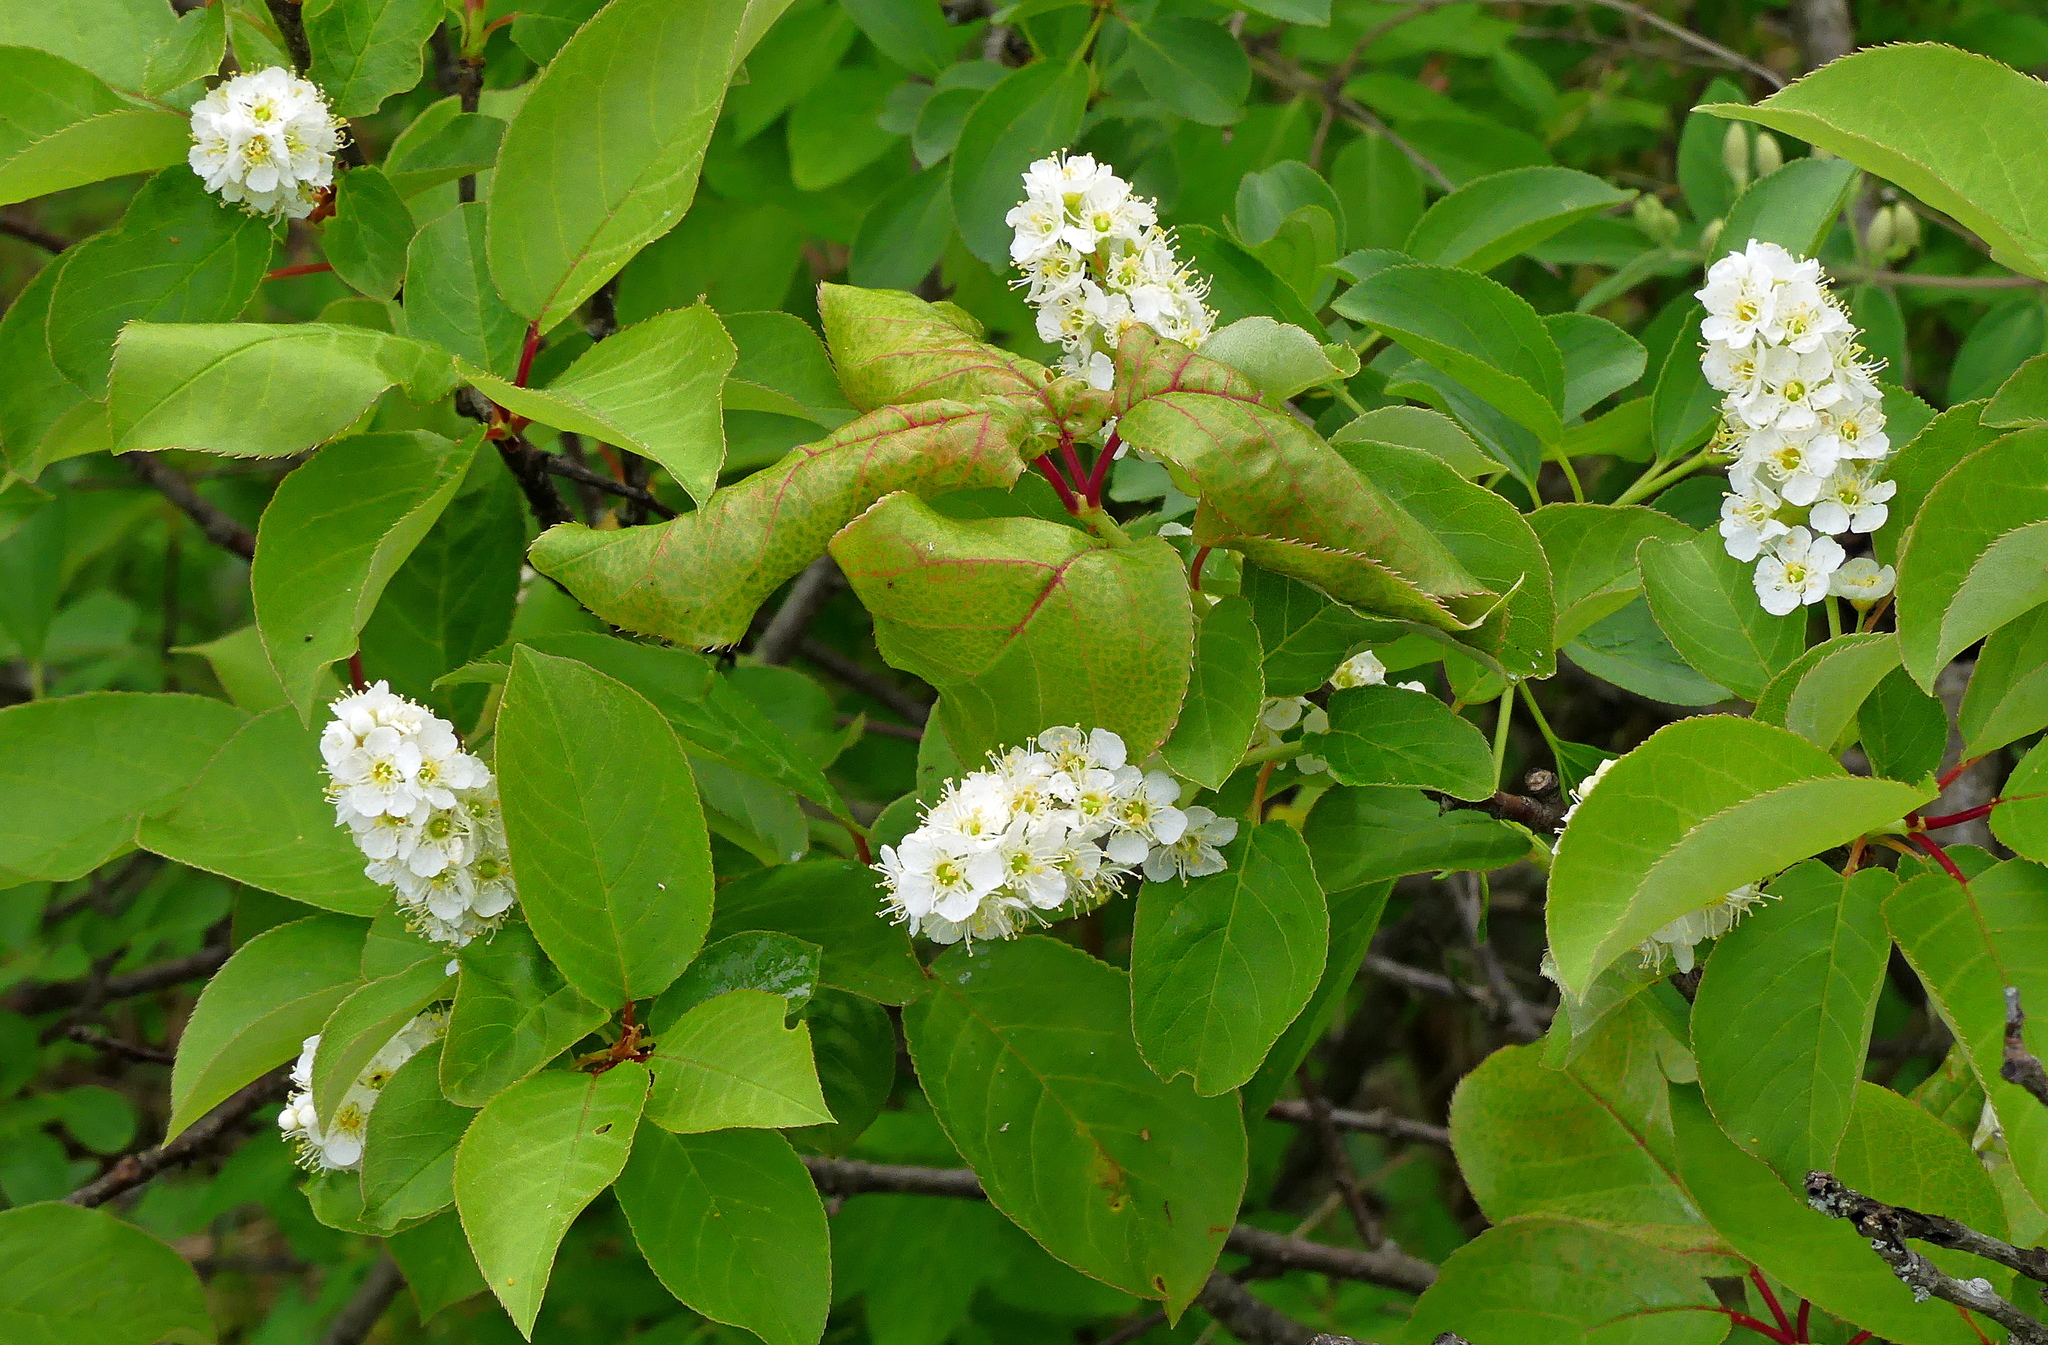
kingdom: Plantae
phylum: Tracheophyta
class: Magnoliopsida
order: Rosales
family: Rosaceae
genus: Prunus
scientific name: Prunus virginiana
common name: Chokecherry
